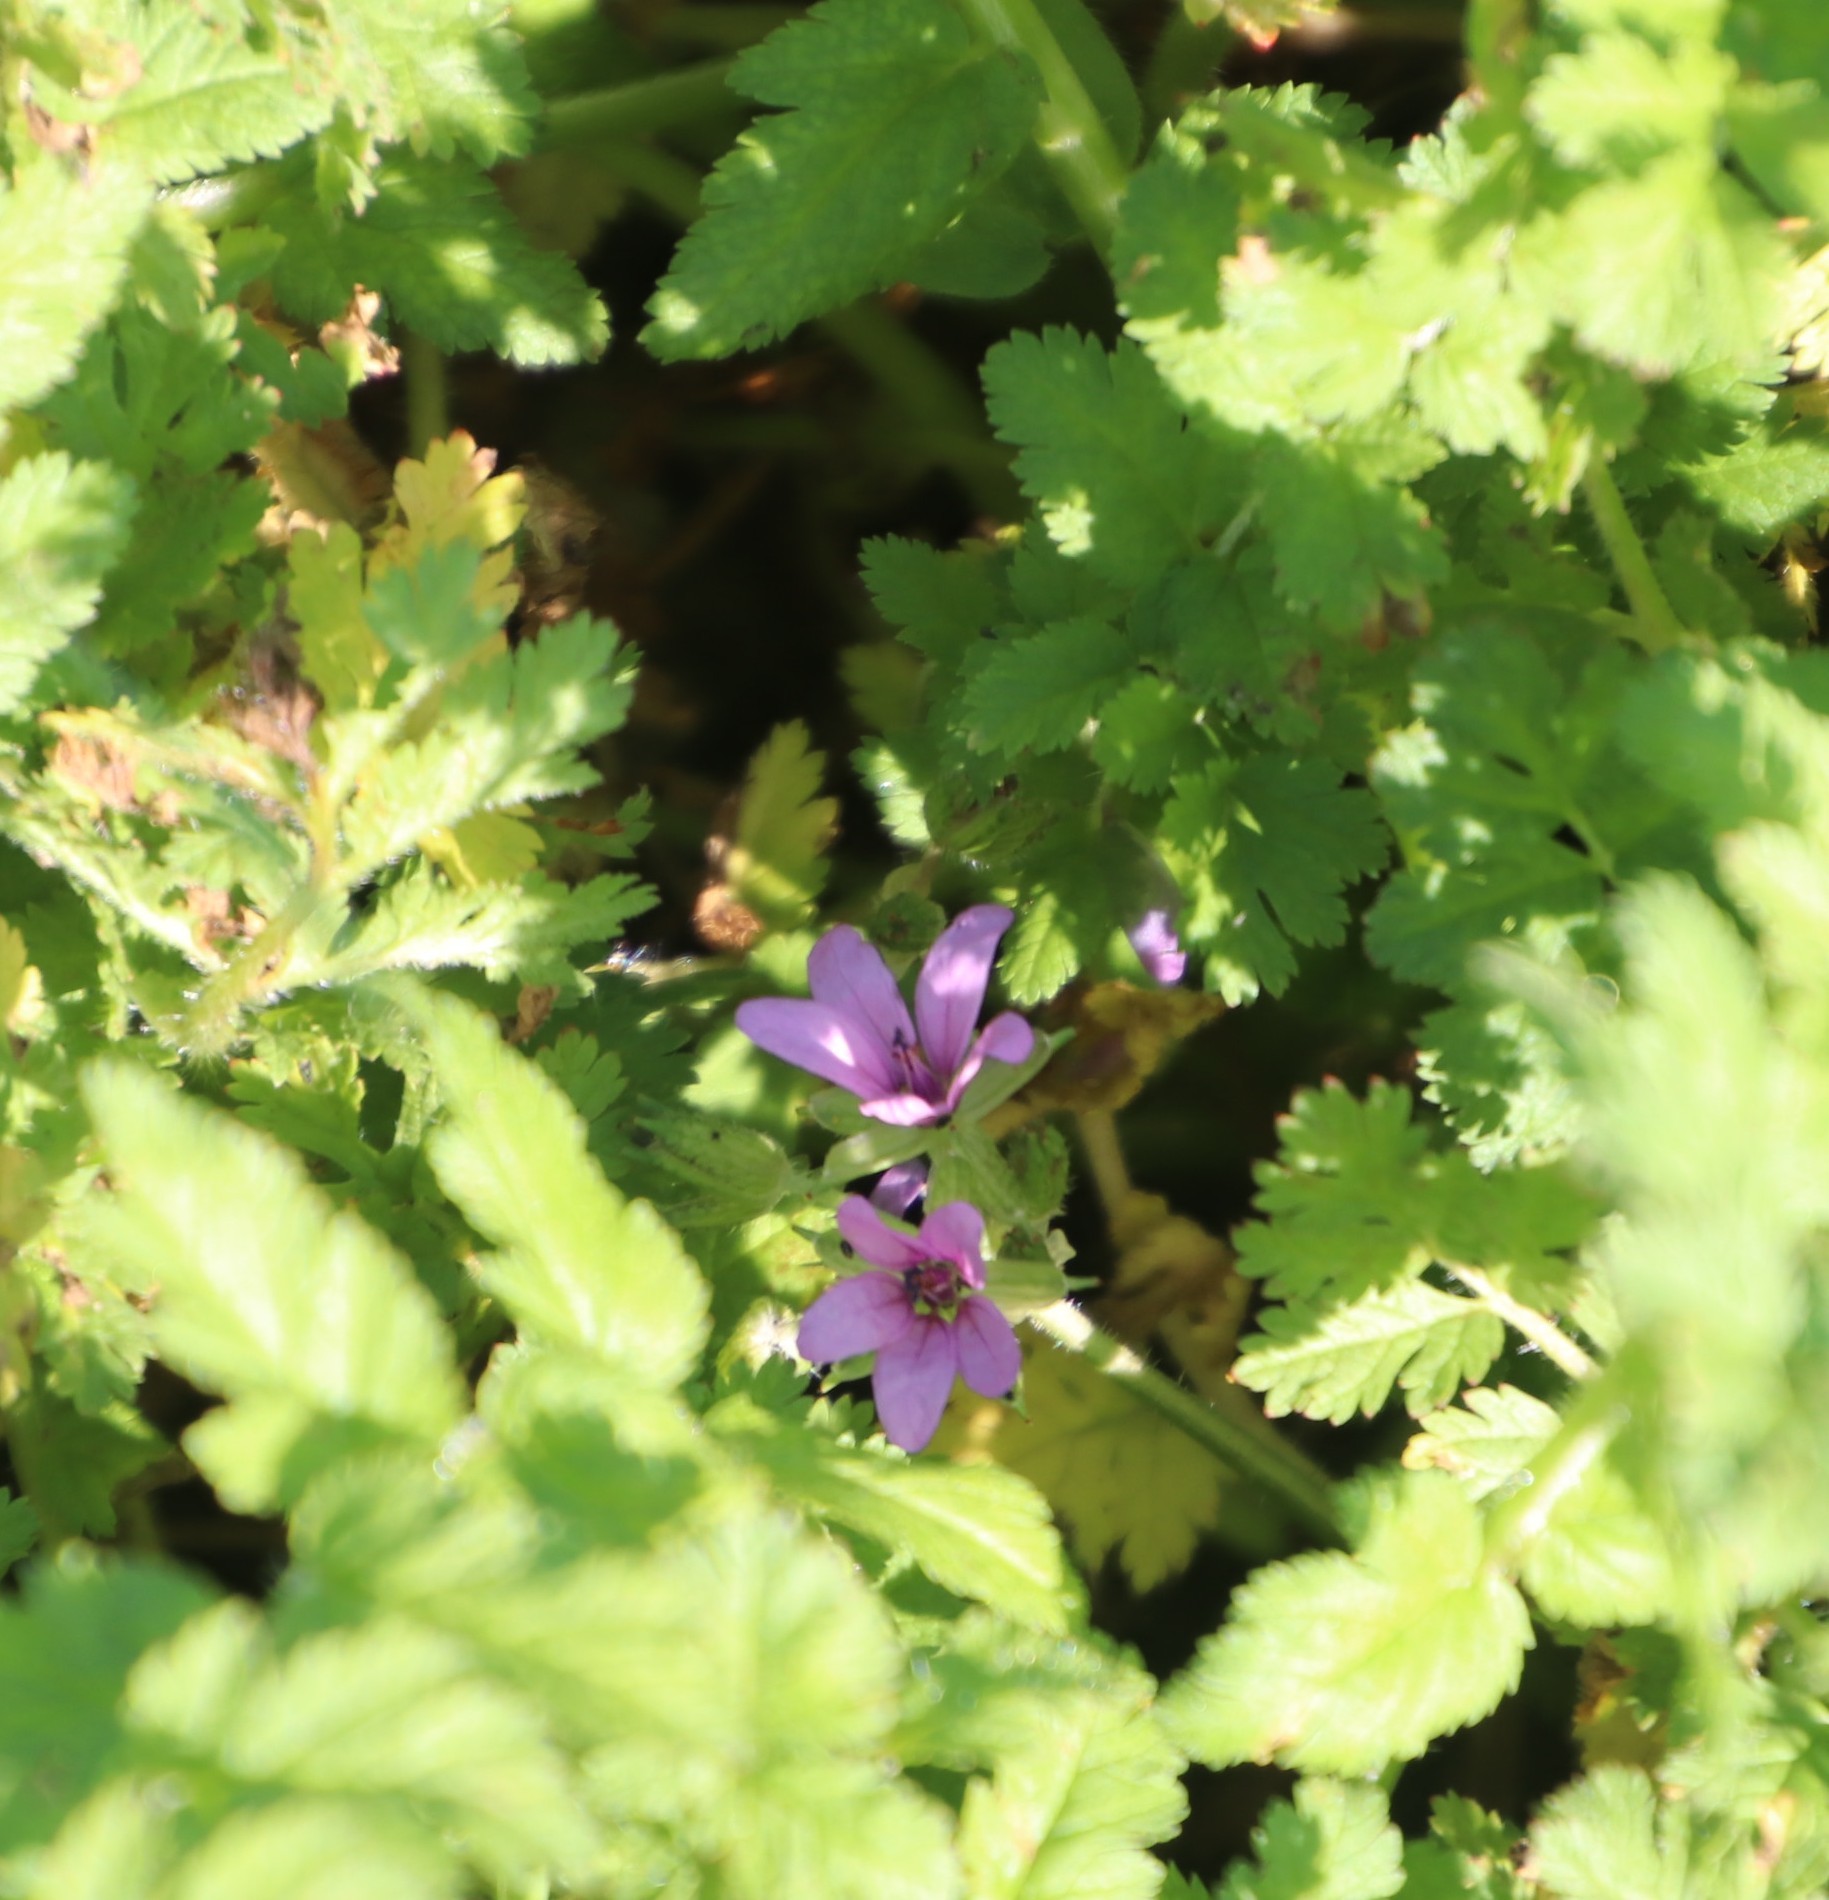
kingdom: Plantae
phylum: Tracheophyta
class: Magnoliopsida
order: Geraniales
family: Geraniaceae
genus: Erodium
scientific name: Erodium moschatum
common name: Musk stork's-bill
